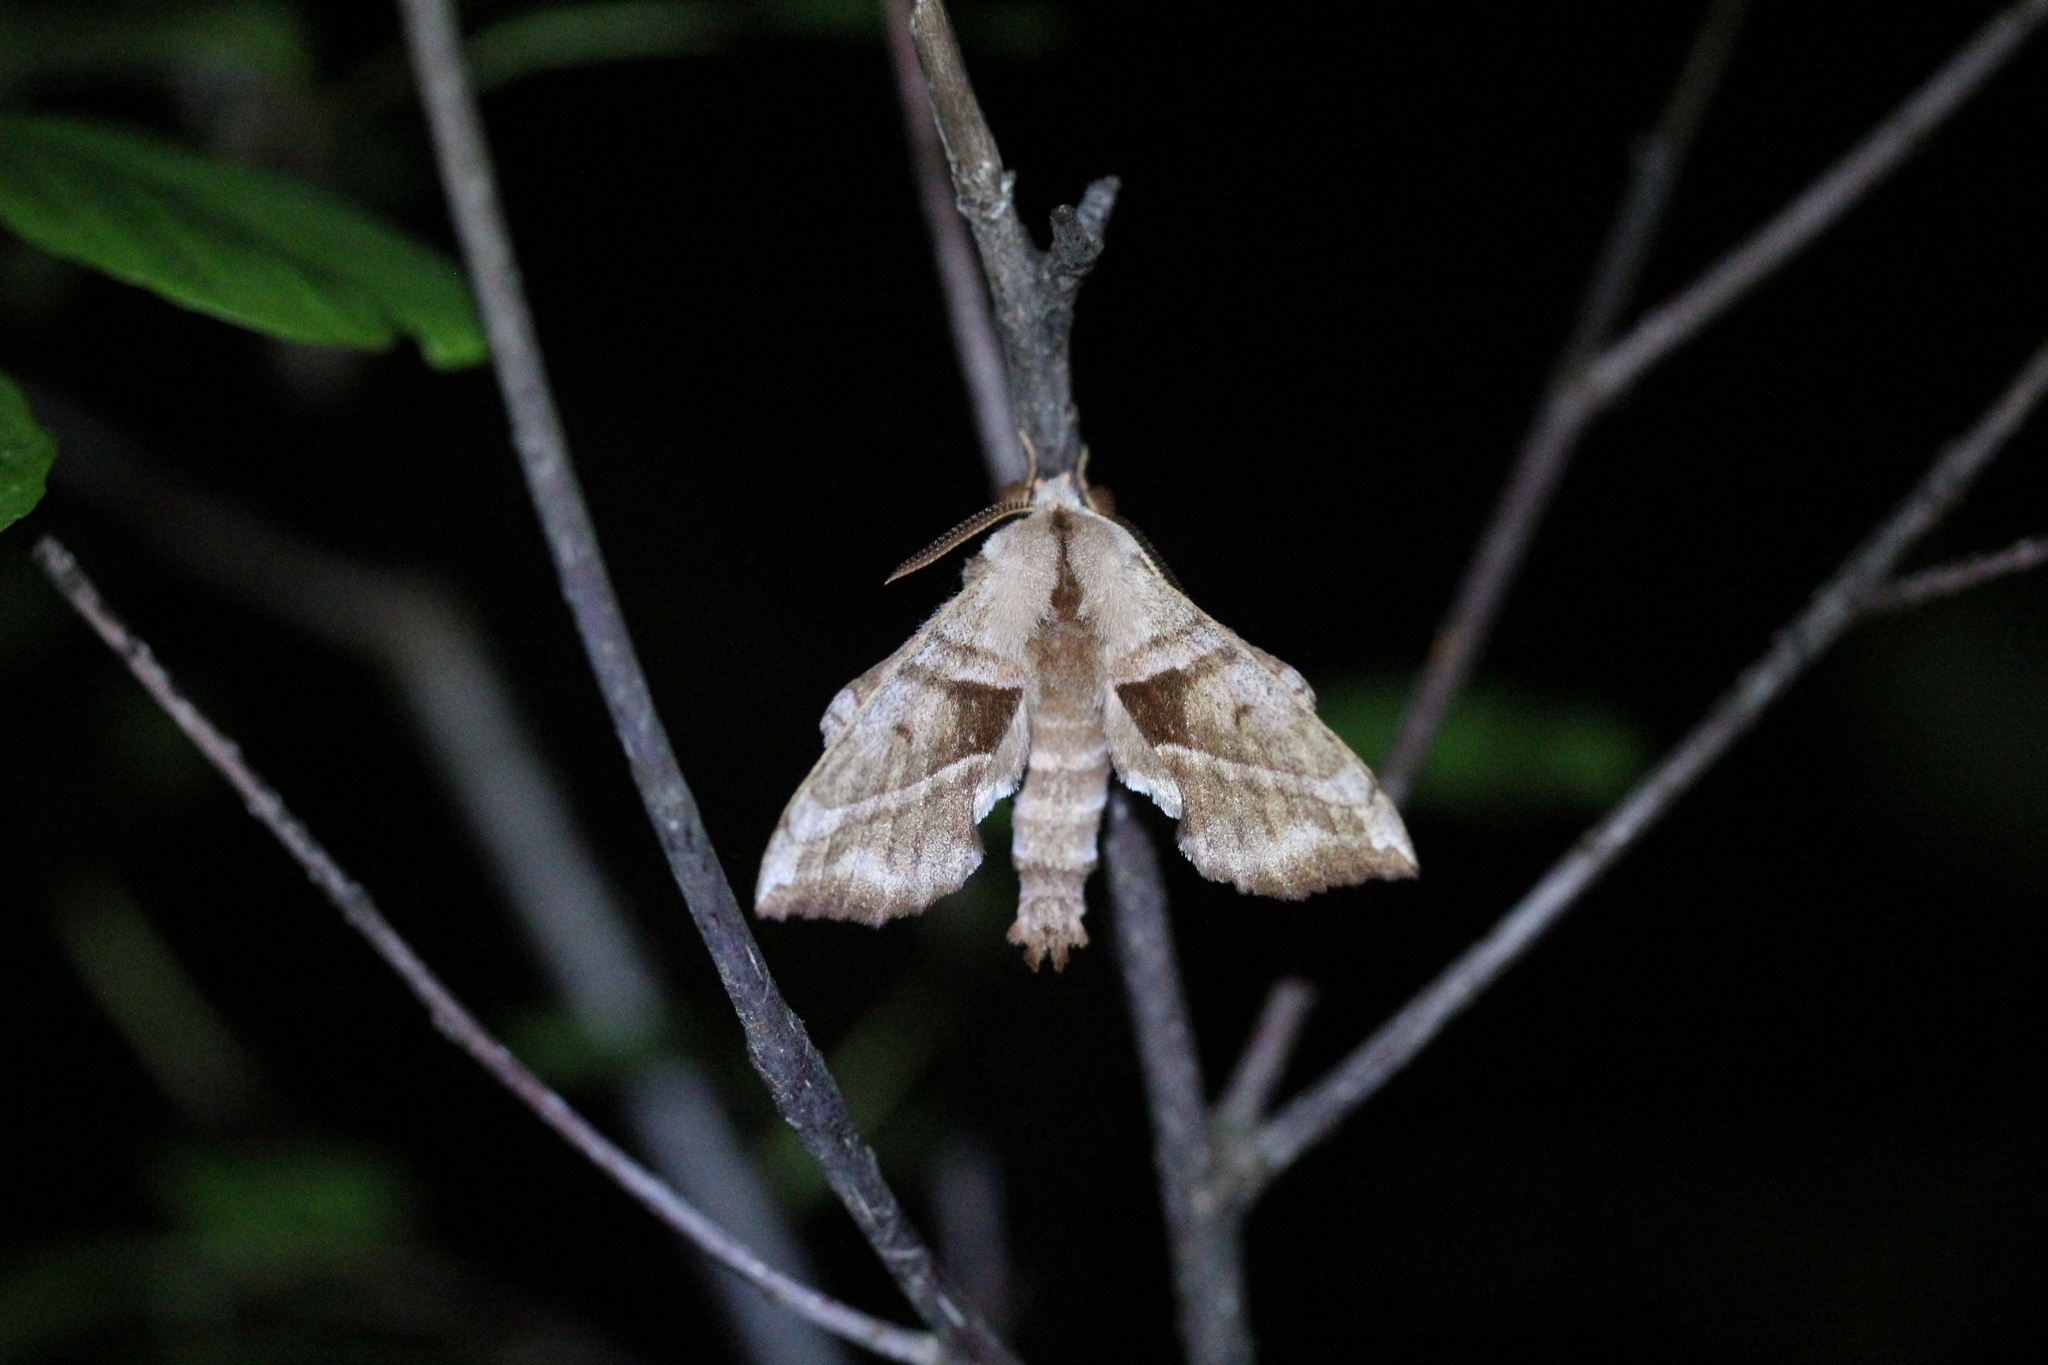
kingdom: Animalia
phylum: Arthropoda
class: Insecta
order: Lepidoptera
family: Sphingidae
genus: Amorpha
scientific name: Amorpha juglandis
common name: Walnut sphinx
